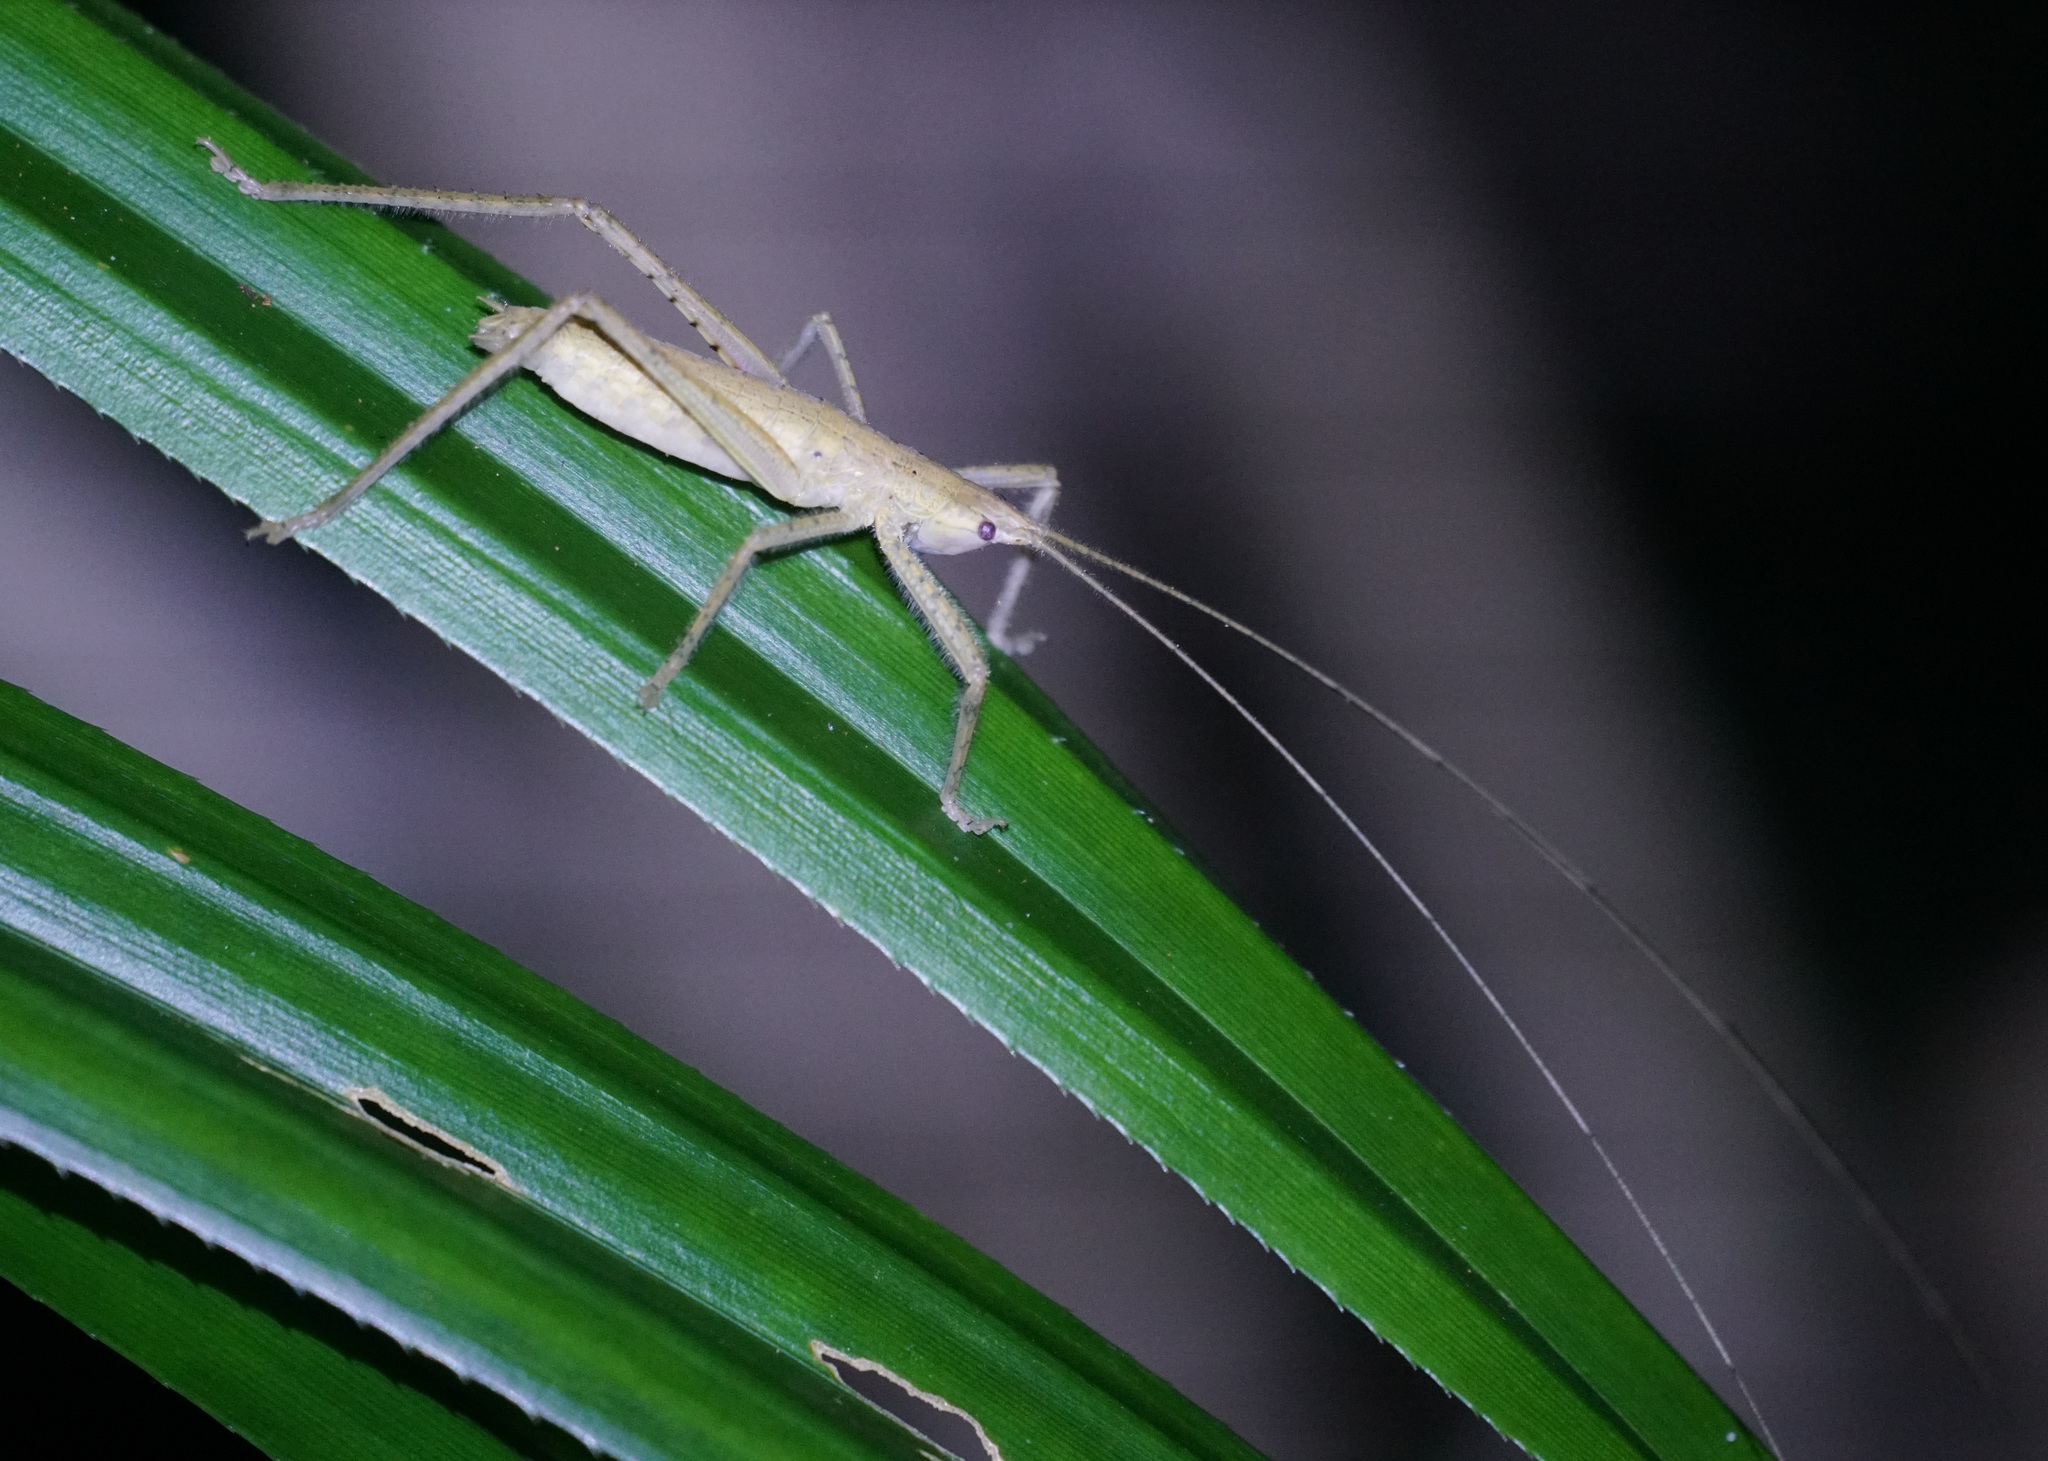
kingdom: Animalia
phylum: Arthropoda
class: Insecta
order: Orthoptera
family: Tettigoniidae
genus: Segestidea
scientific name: Segestidea queenslandica
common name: Queensland palm katydid
